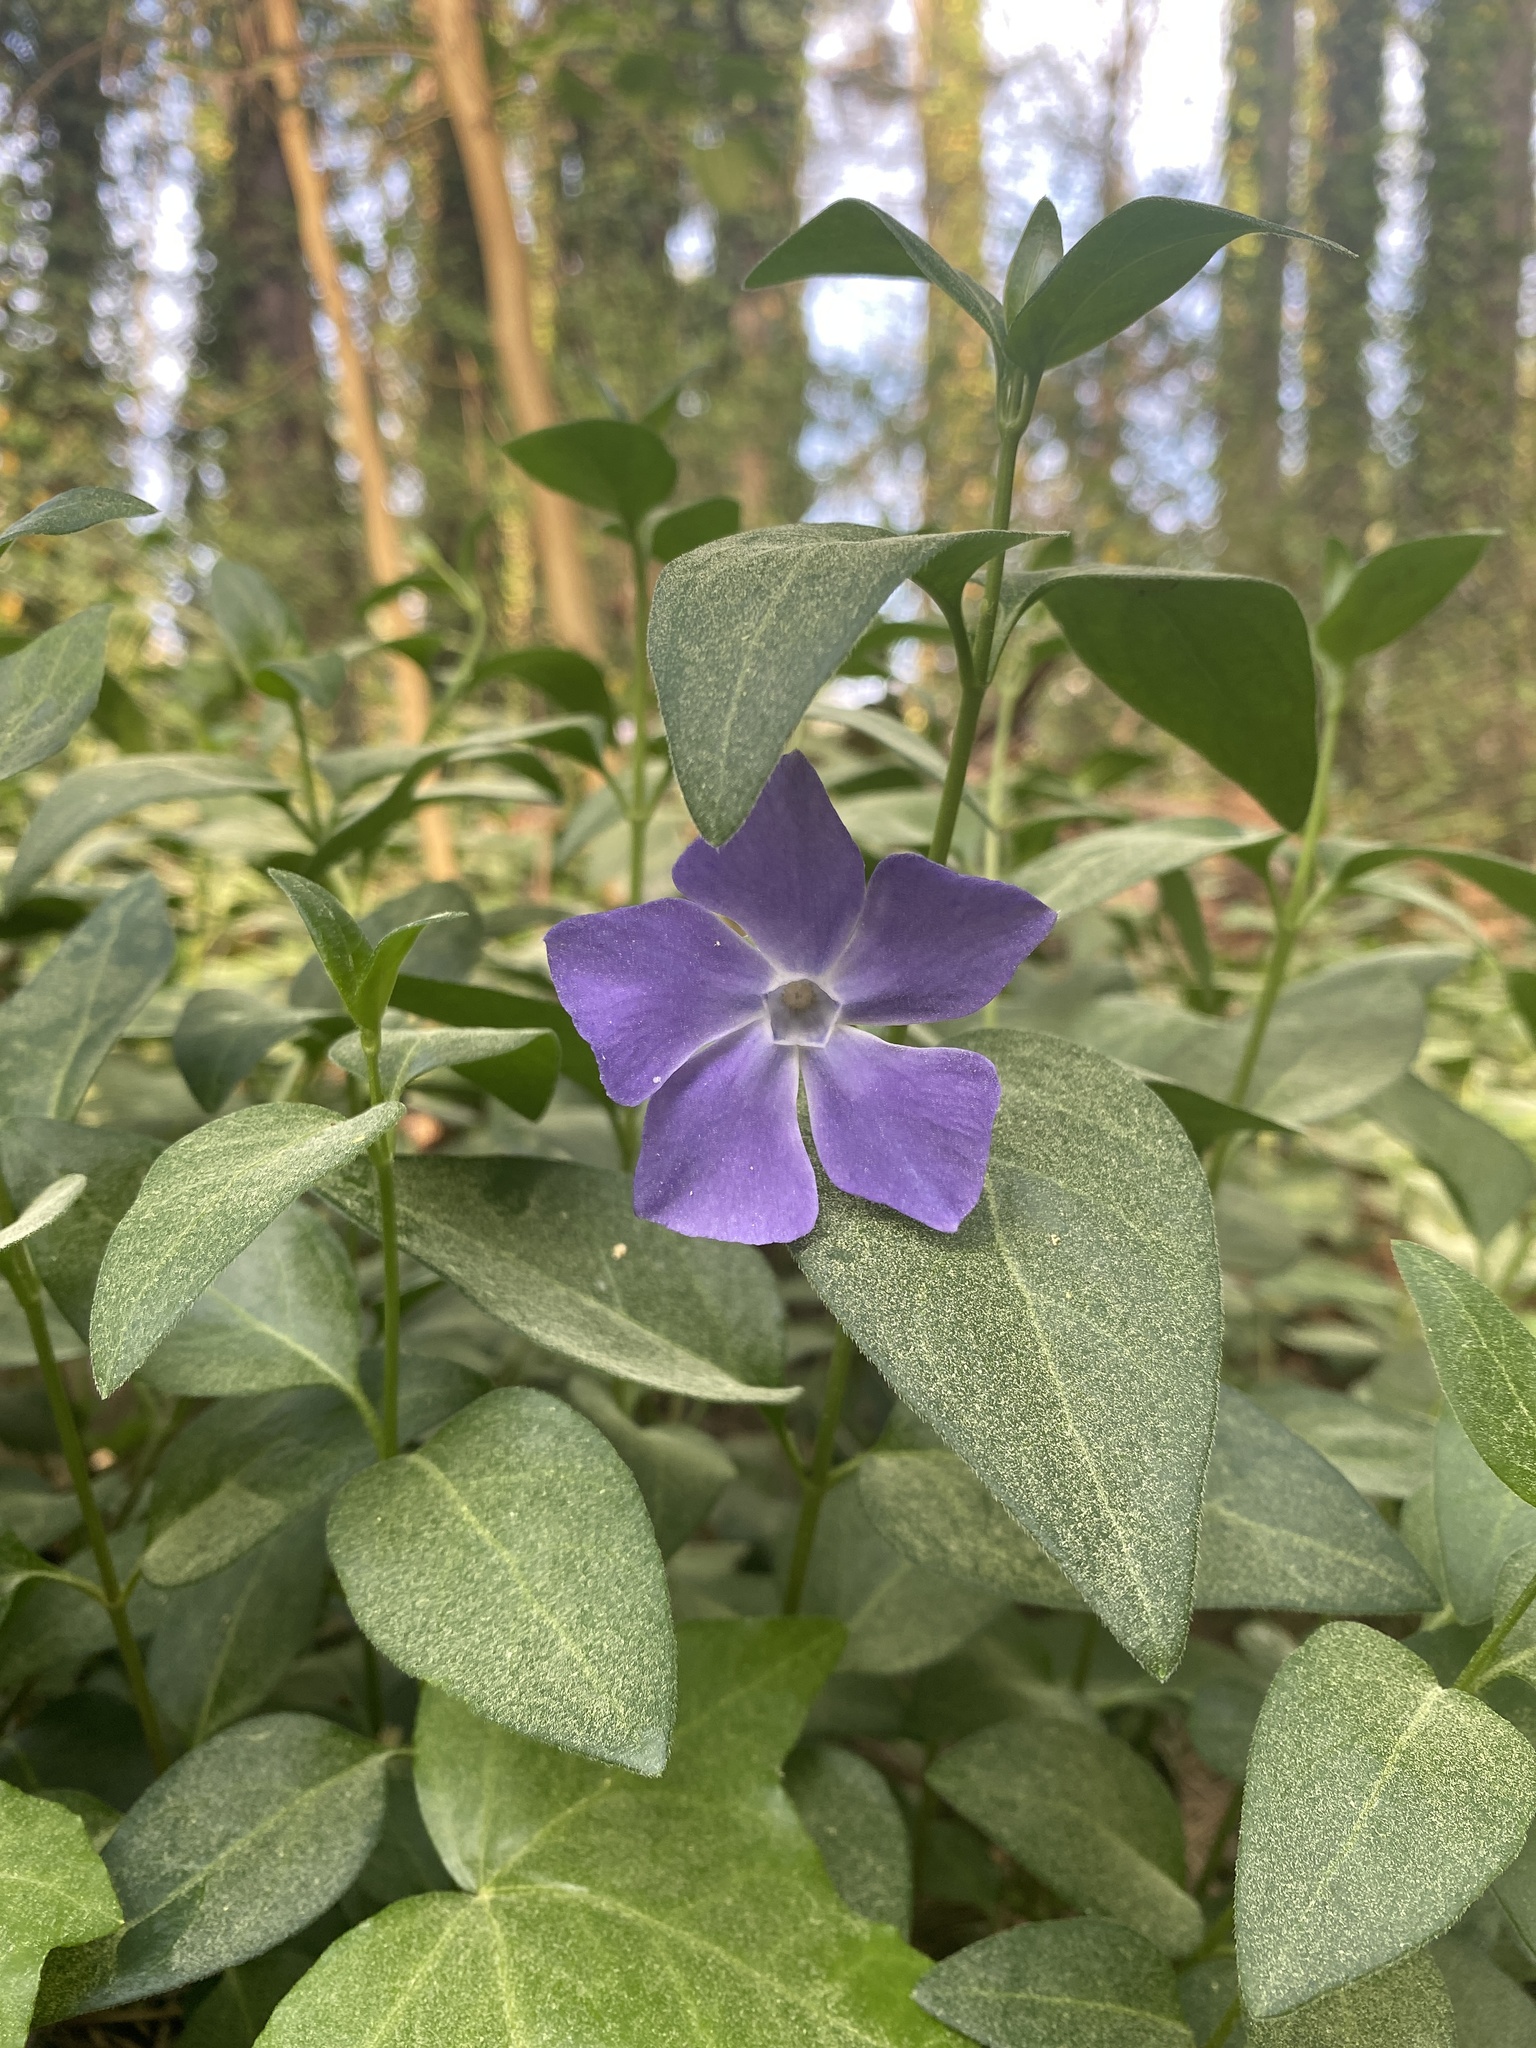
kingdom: Plantae
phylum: Tracheophyta
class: Magnoliopsida
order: Gentianales
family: Apocynaceae
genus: Vinca
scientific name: Vinca major
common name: Greater periwinkle
